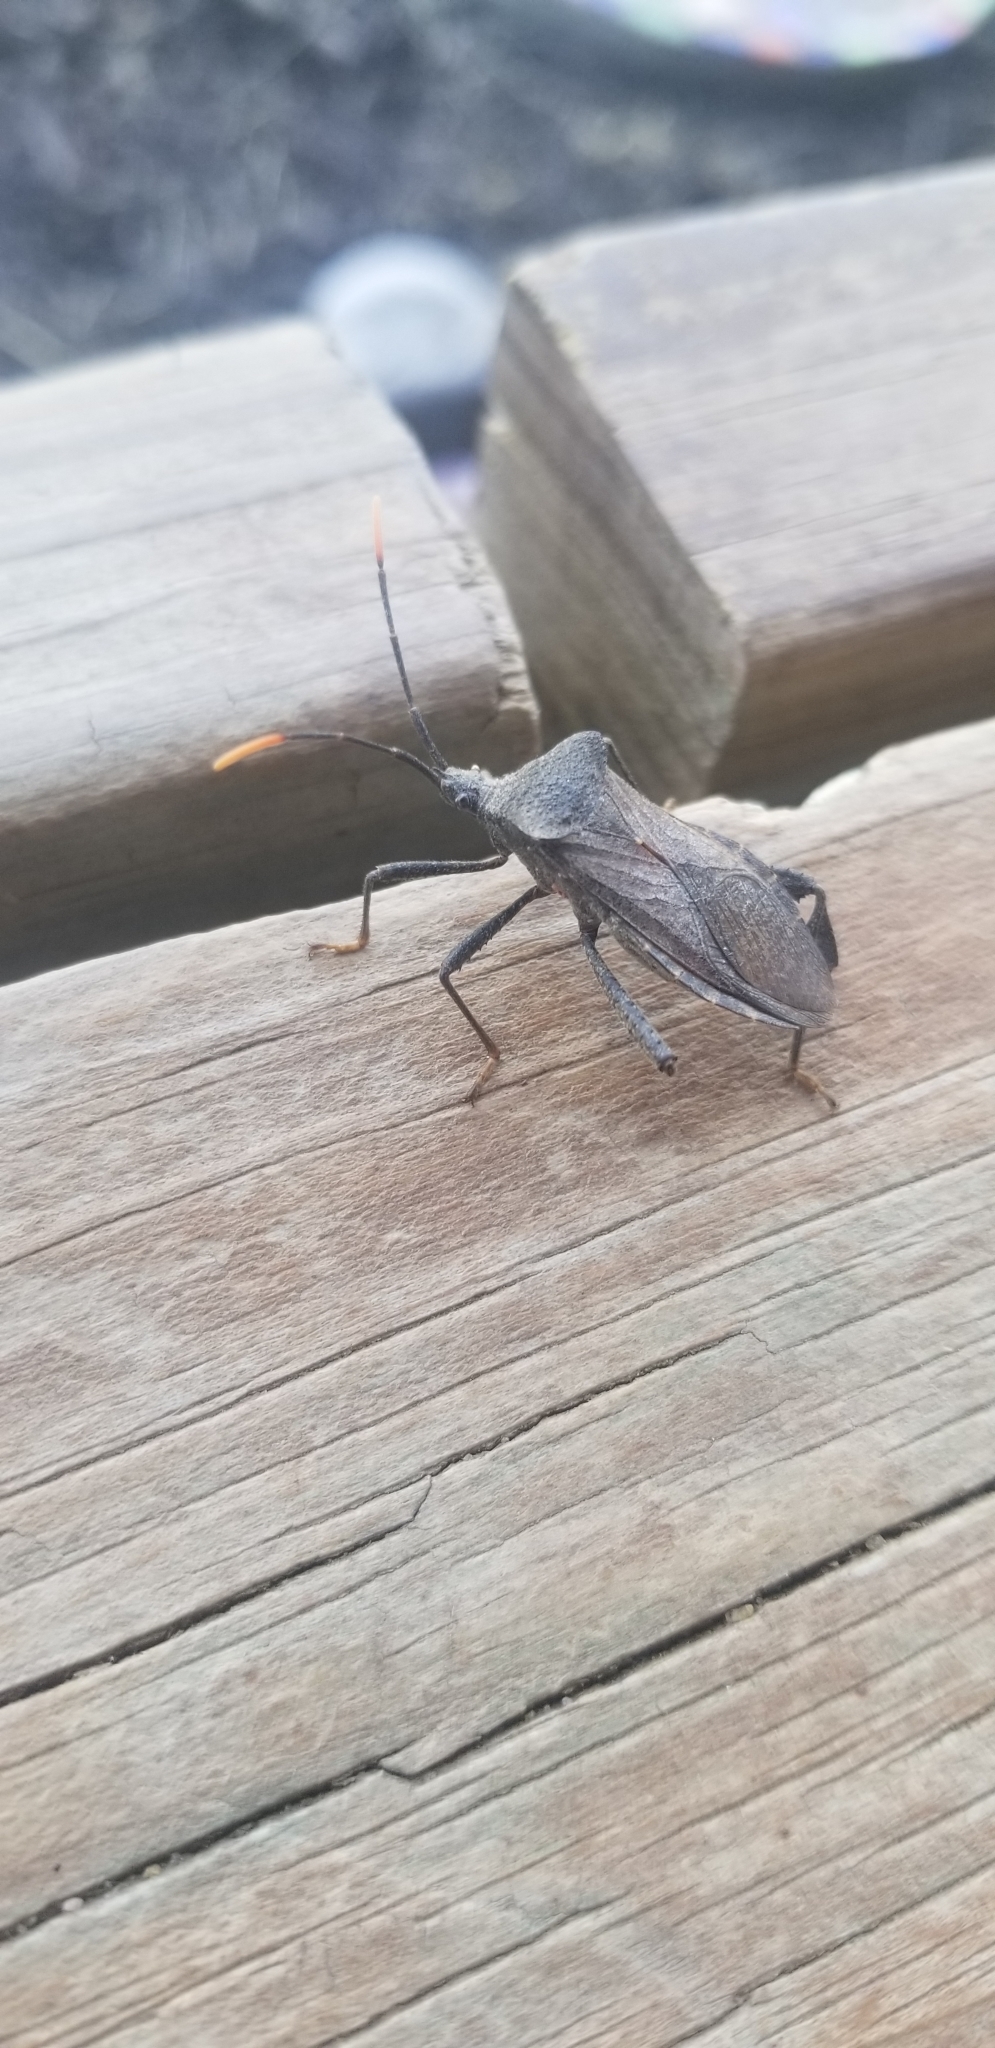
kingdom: Animalia
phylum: Arthropoda
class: Insecta
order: Hemiptera
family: Coreidae
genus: Acanthocephala
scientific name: Acanthocephala terminalis
